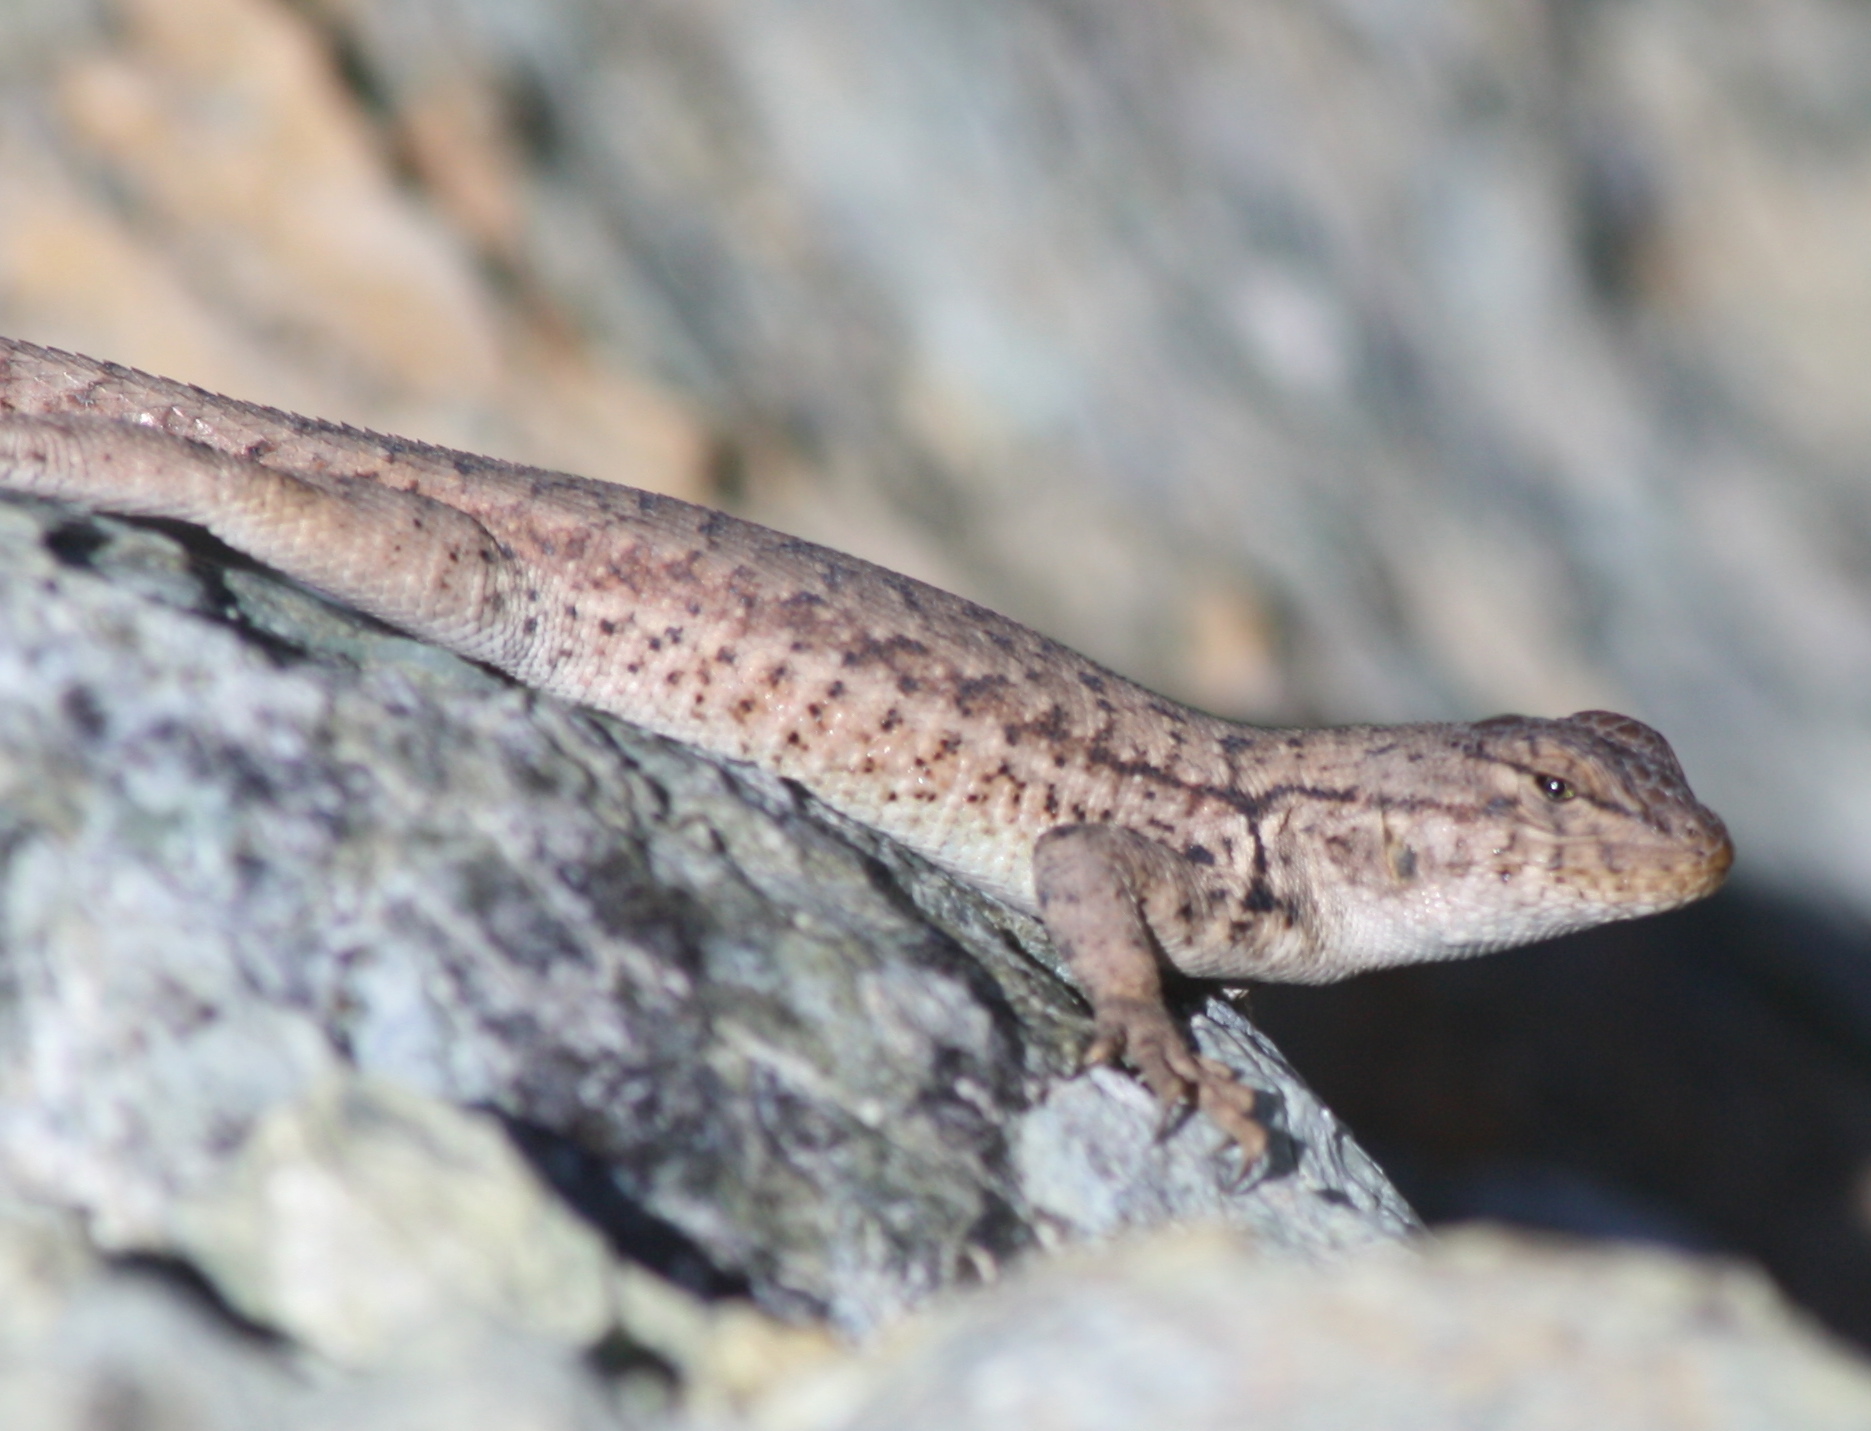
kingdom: Animalia
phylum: Chordata
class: Squamata
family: Phrynosomatidae
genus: Sceloporus
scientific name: Sceloporus graciosus
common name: Sagebrush lizard
